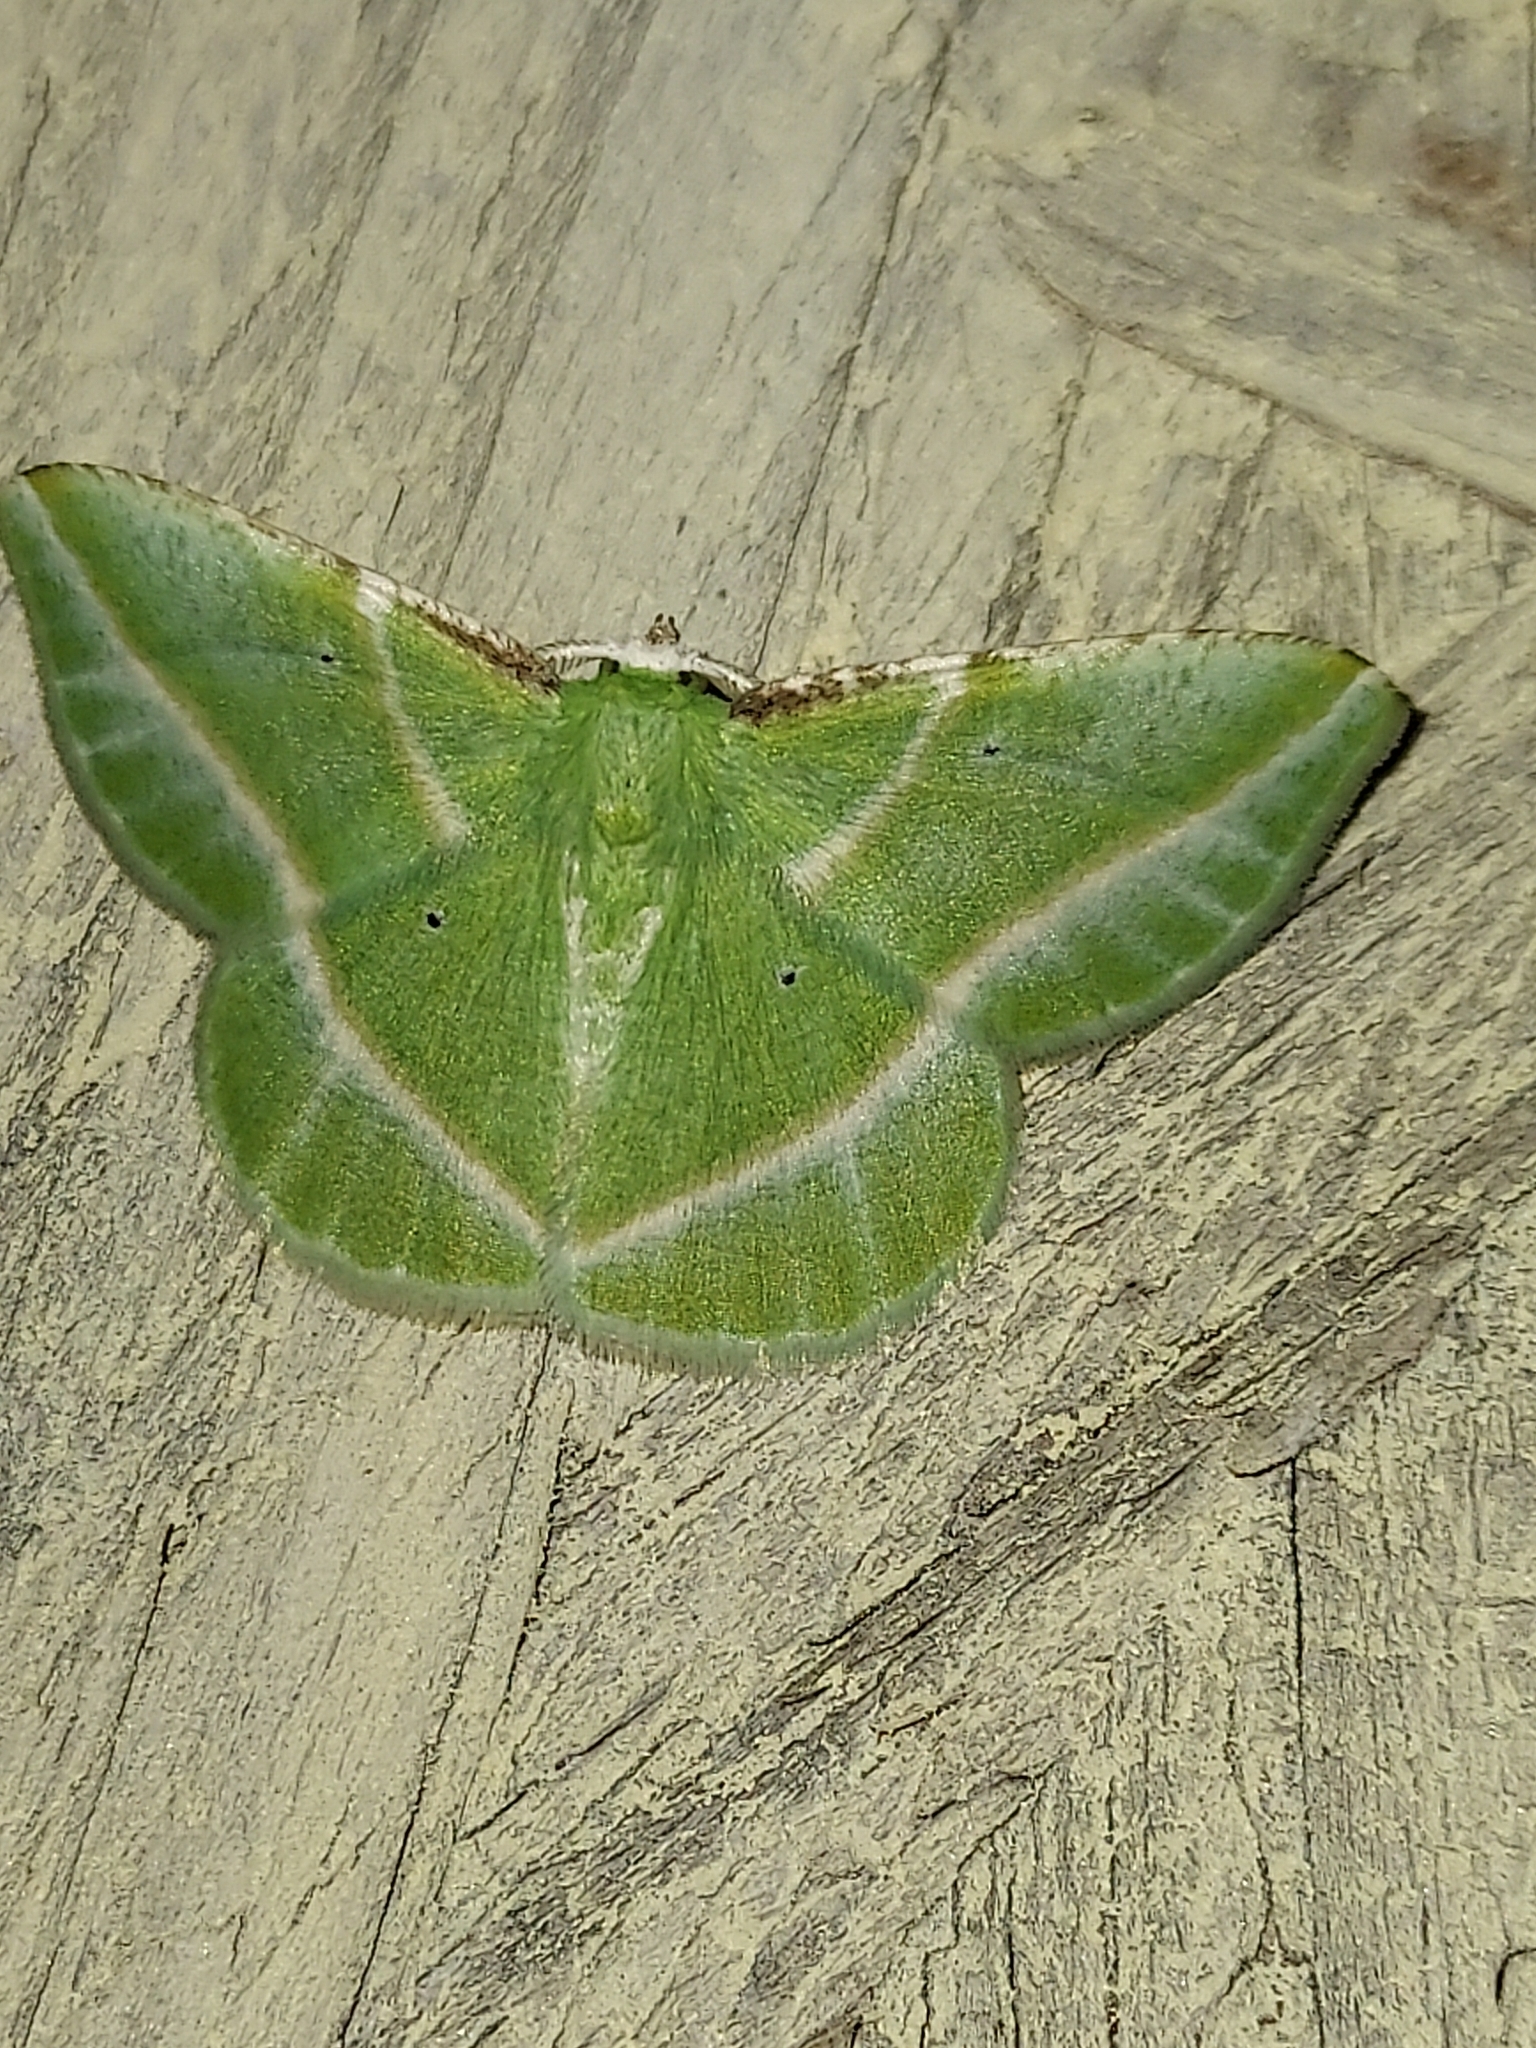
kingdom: Animalia
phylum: Arthropoda
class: Insecta
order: Lepidoptera
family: Geometridae
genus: Dichorda
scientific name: Dichorda iridaria
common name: Showy emerald
